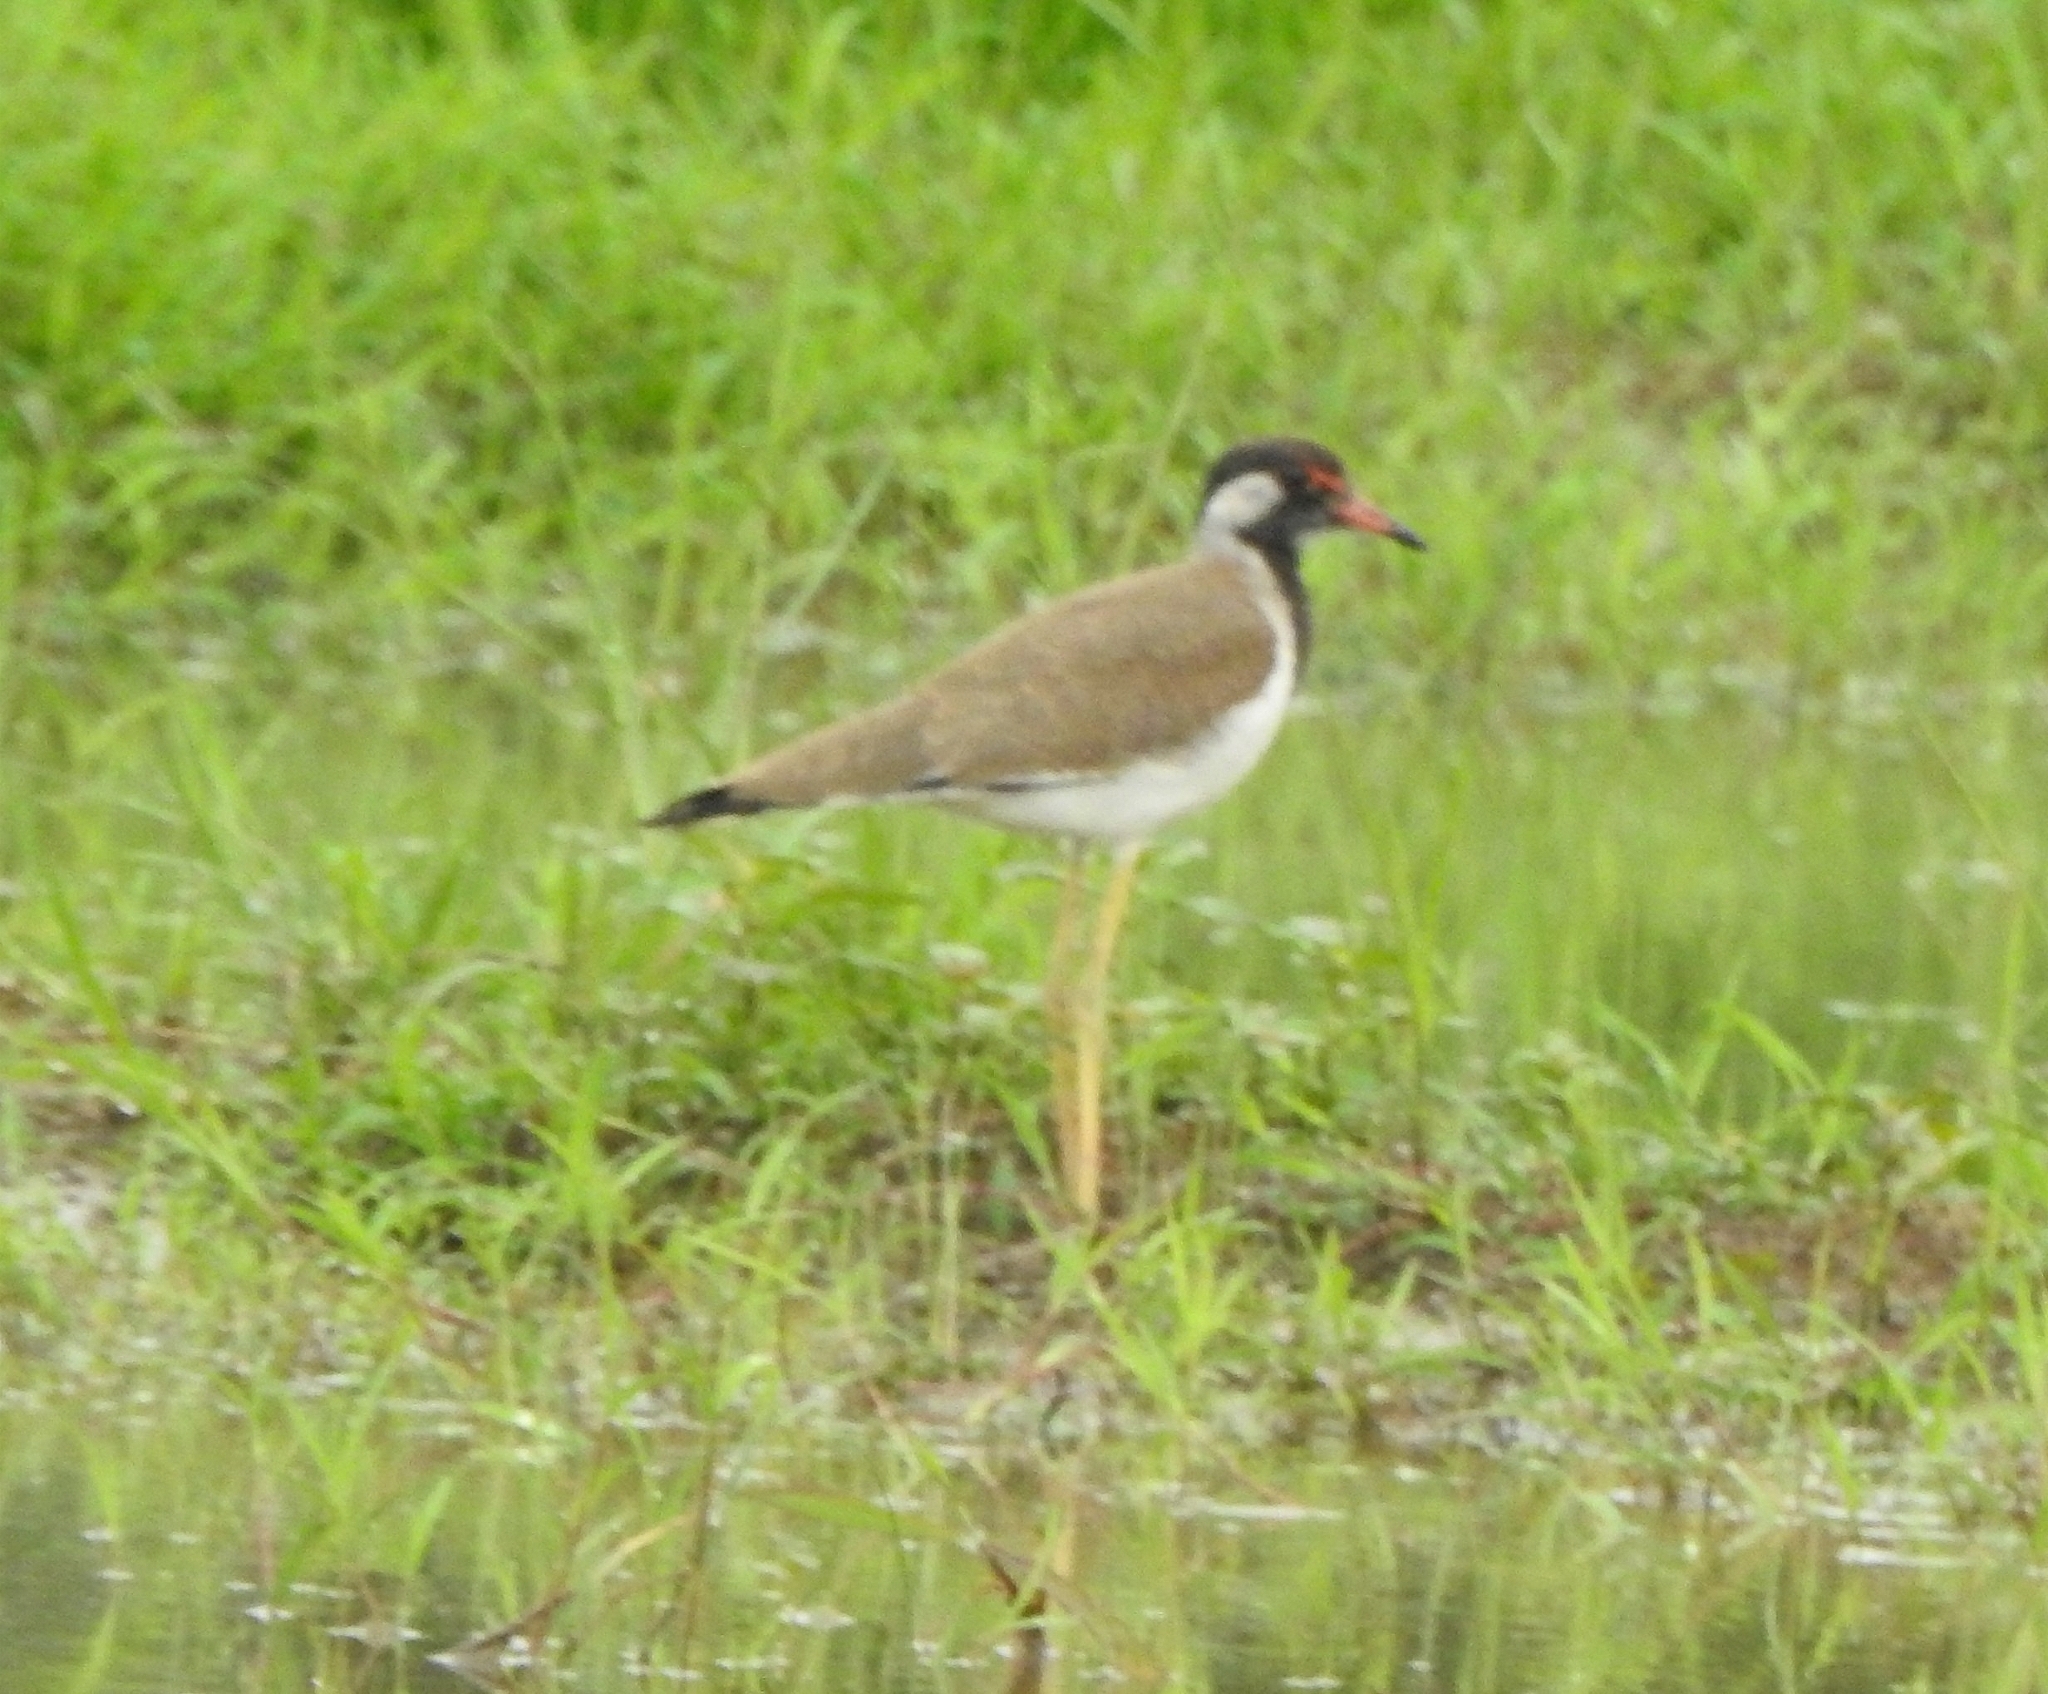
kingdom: Animalia
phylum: Chordata
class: Aves
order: Charadriiformes
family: Charadriidae
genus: Vanellus
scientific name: Vanellus indicus
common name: Red-wattled lapwing
